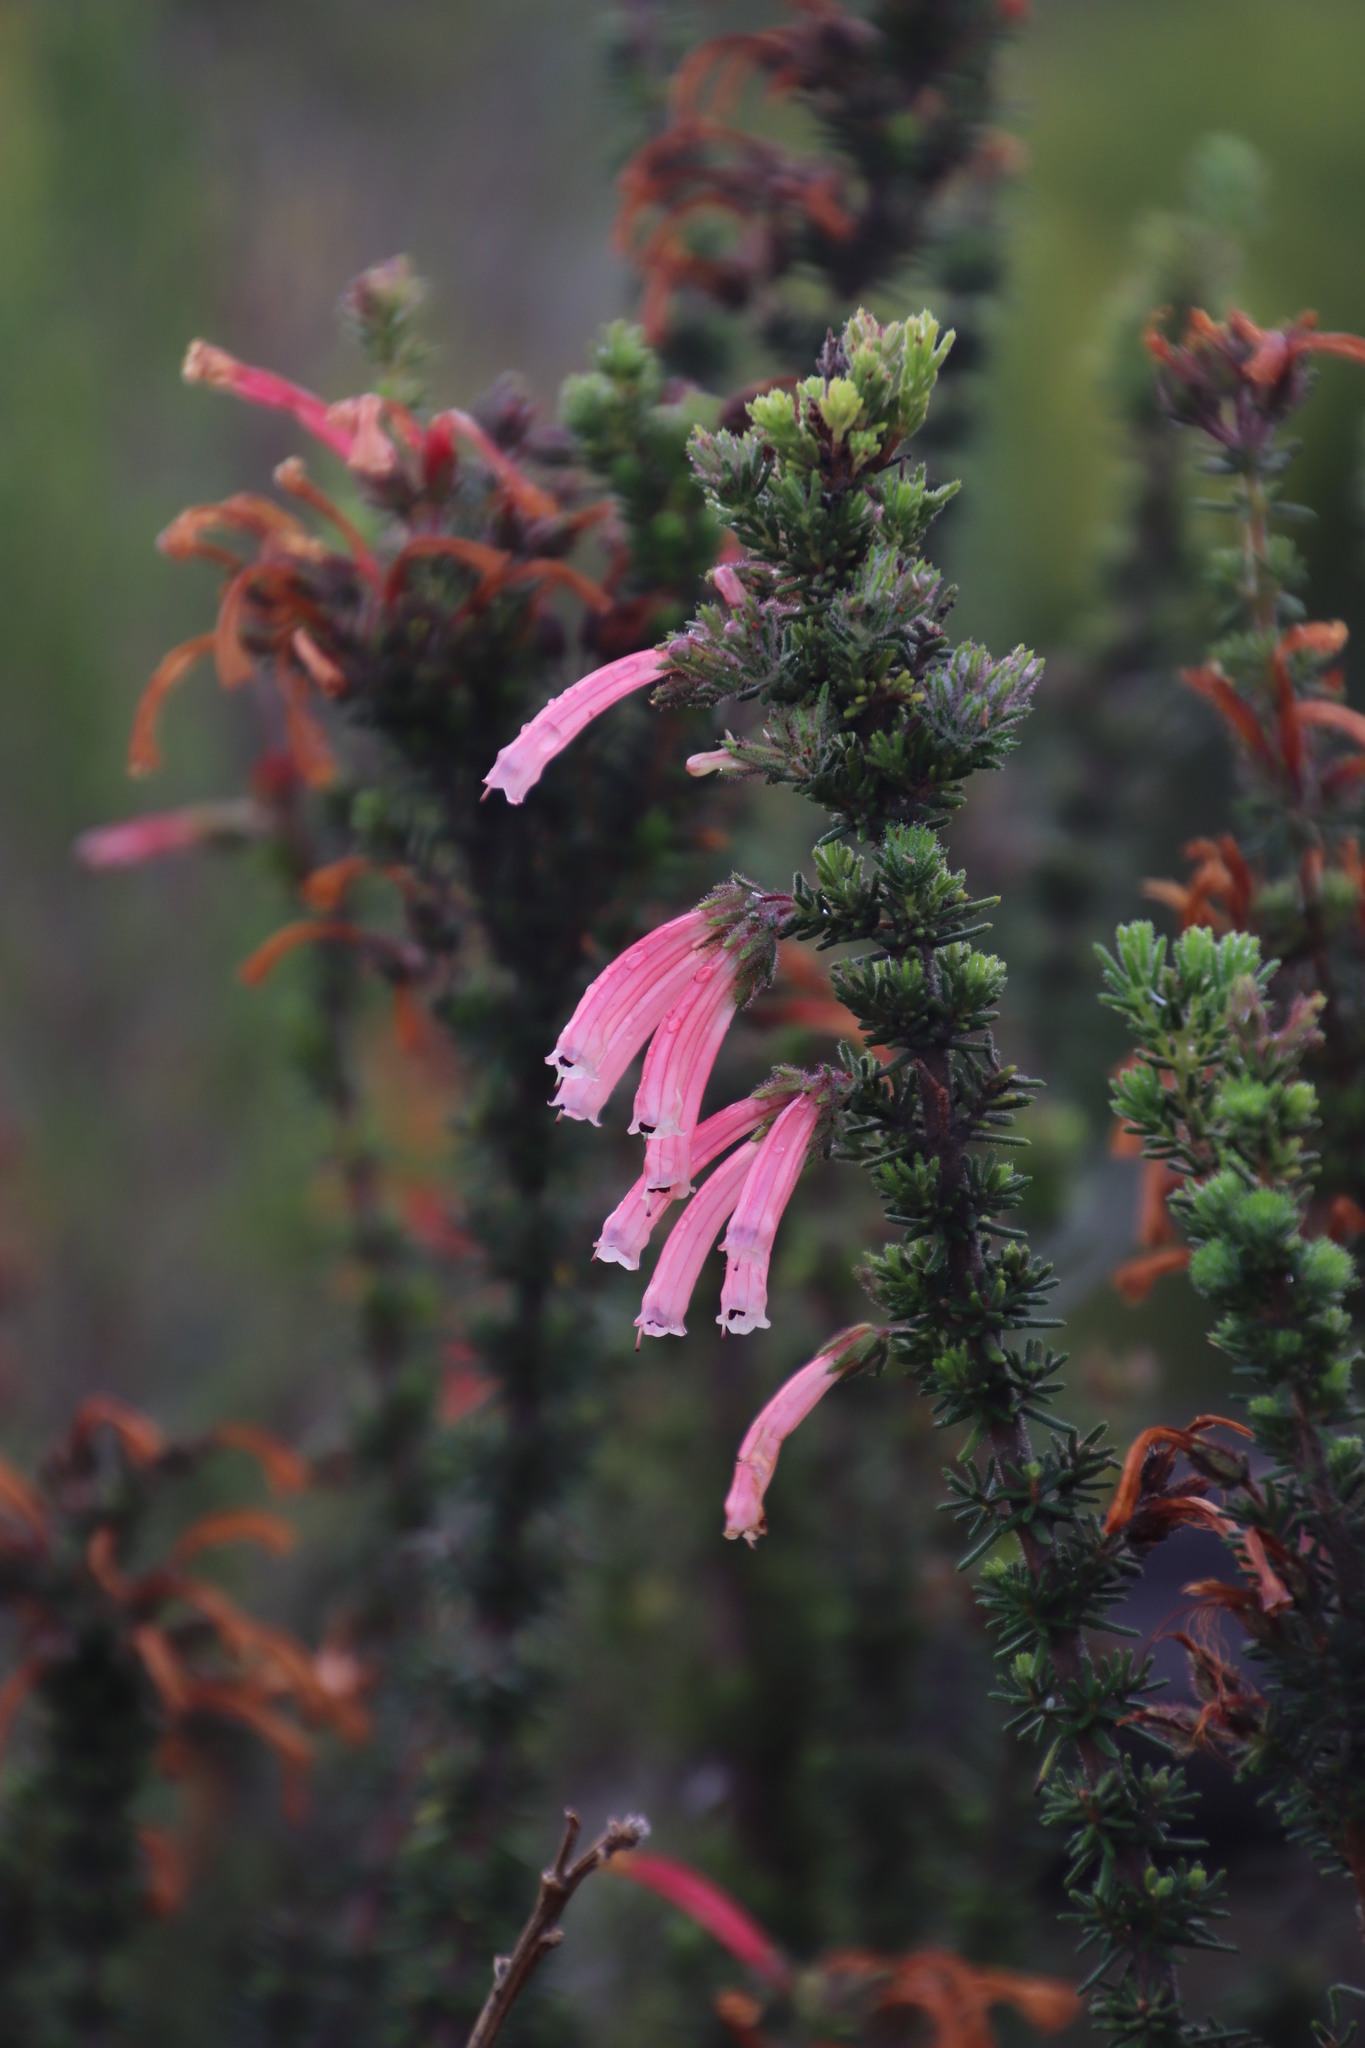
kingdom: Plantae
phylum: Tracheophyta
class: Magnoliopsida
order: Ericales
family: Ericaceae
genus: Erica
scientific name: Erica glandulosa
